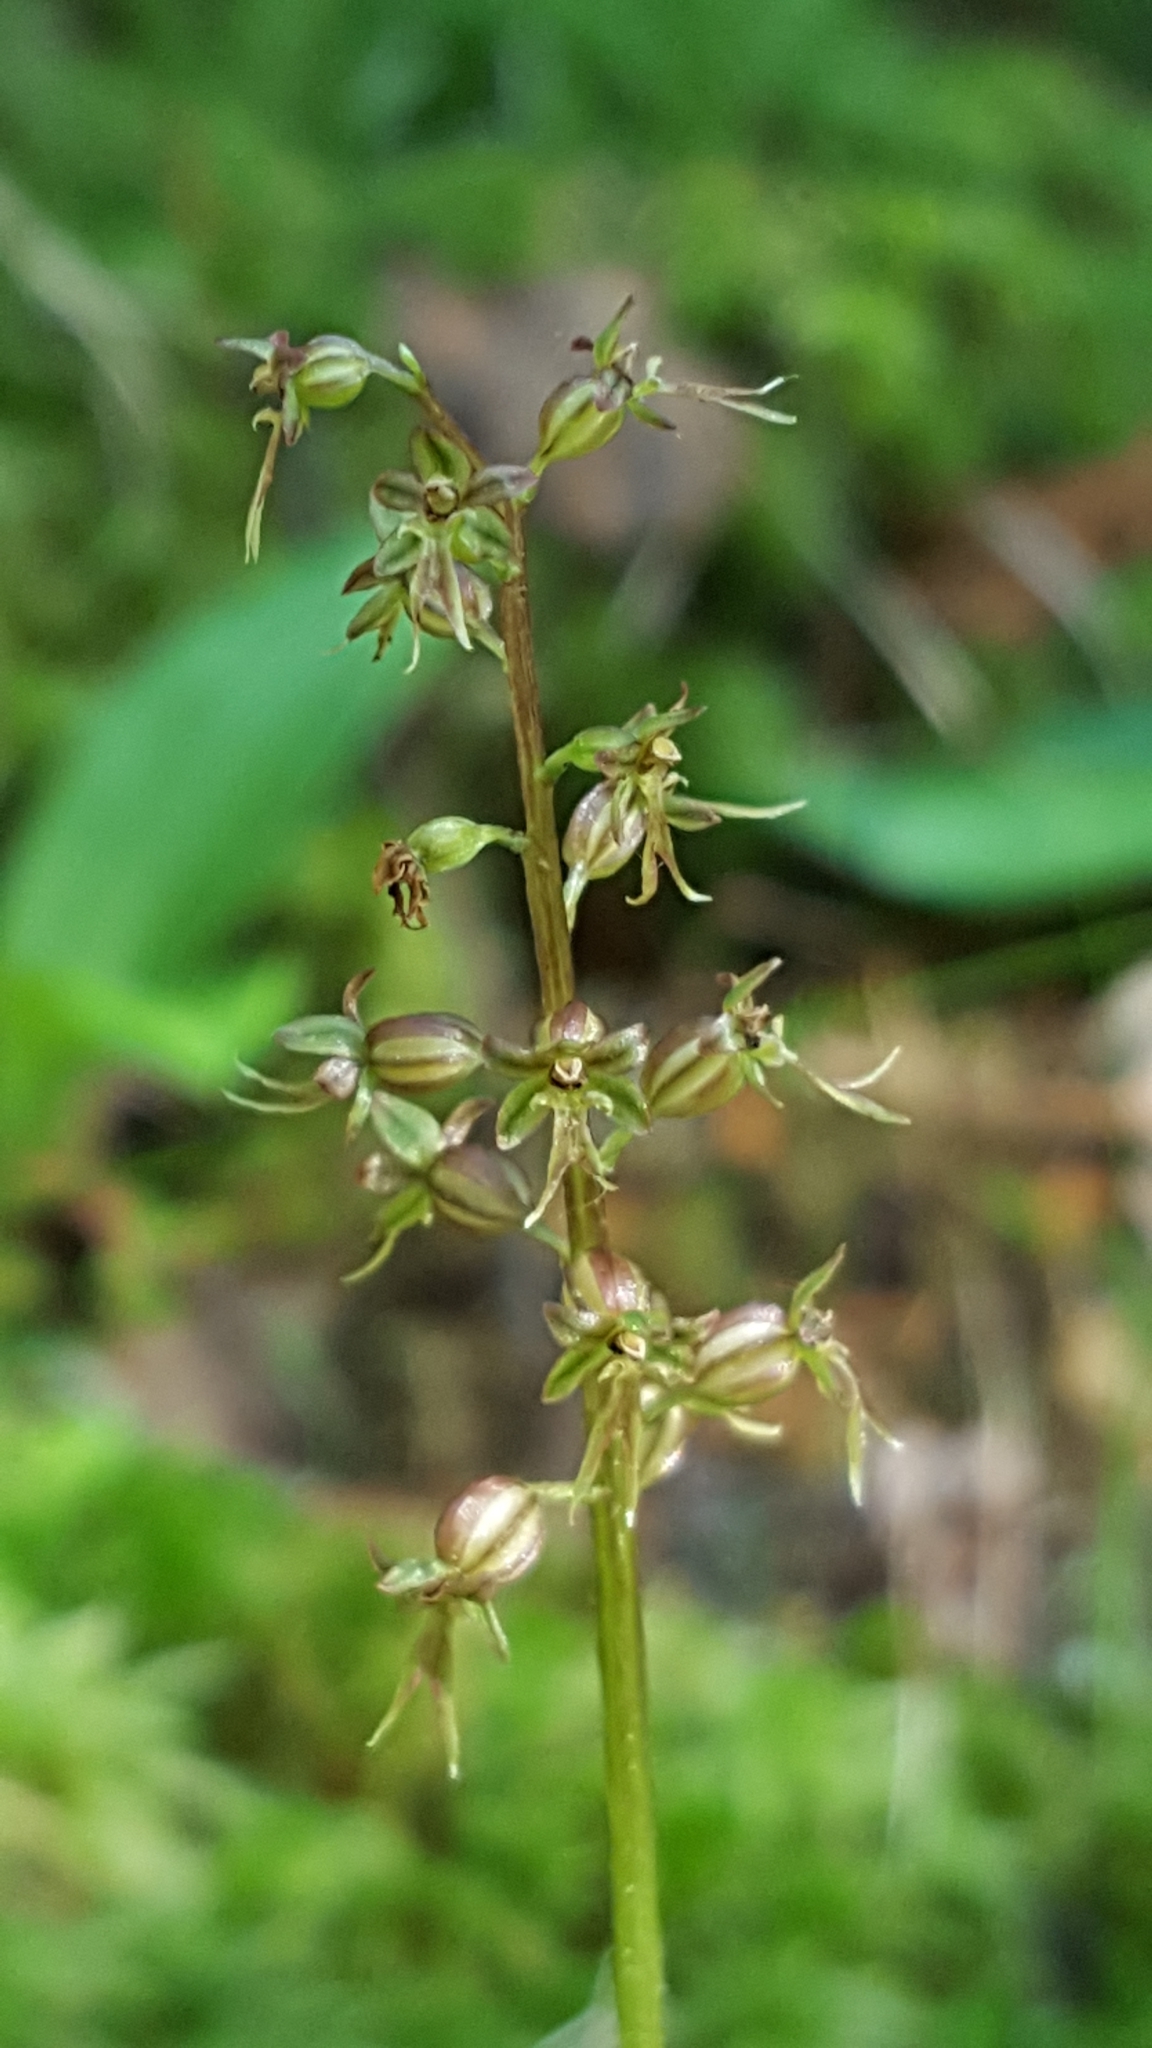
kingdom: Plantae
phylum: Tracheophyta
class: Liliopsida
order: Asparagales
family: Orchidaceae
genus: Neottia
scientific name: Neottia cordata
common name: Lesser twayblade
